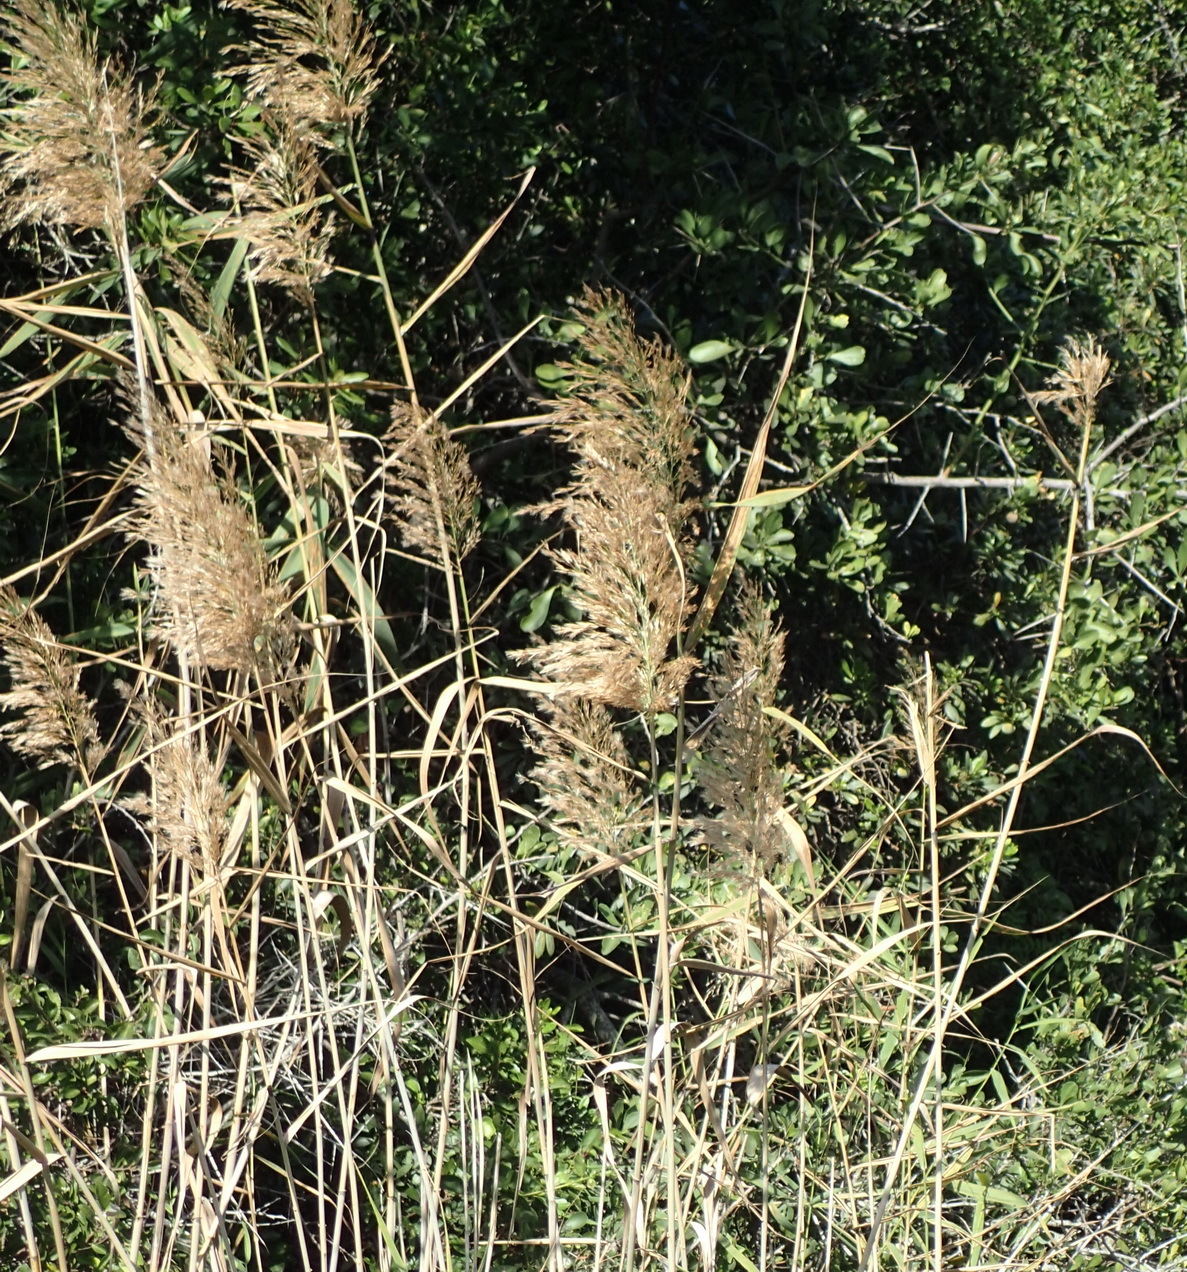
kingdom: Plantae
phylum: Tracheophyta
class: Liliopsida
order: Poales
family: Poaceae
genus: Phragmites
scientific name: Phragmites australis
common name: Common reed
